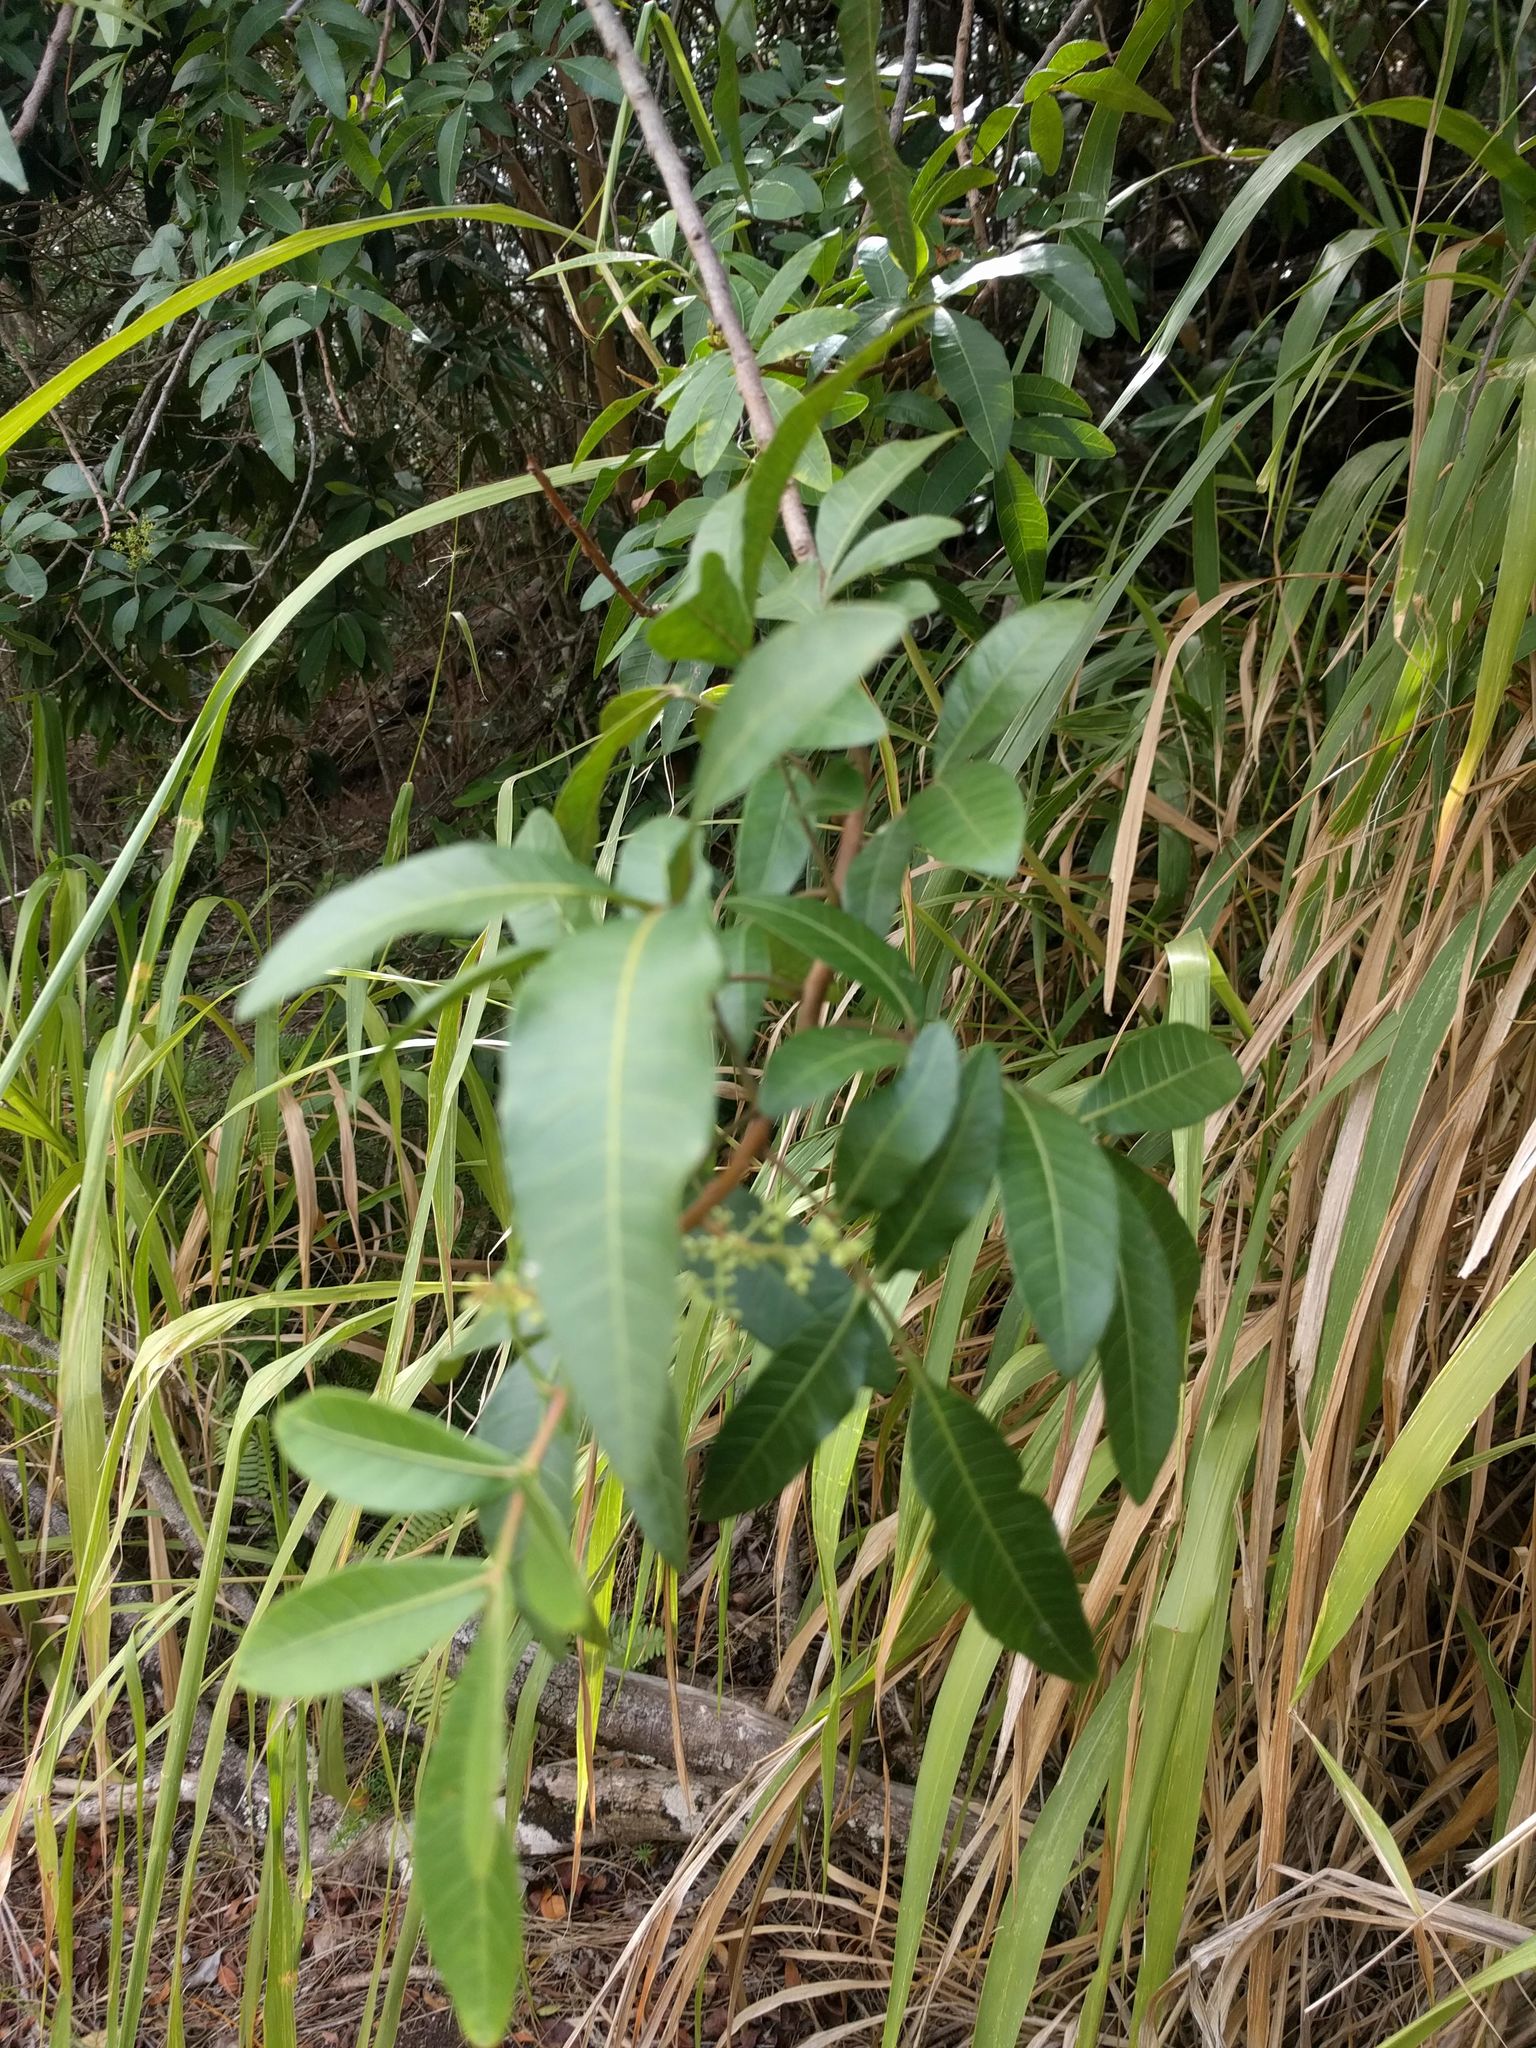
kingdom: Plantae
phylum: Tracheophyta
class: Magnoliopsida
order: Sapindales
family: Anacardiaceae
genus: Schinus
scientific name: Schinus terebinthifolia
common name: Brazilian peppertree
